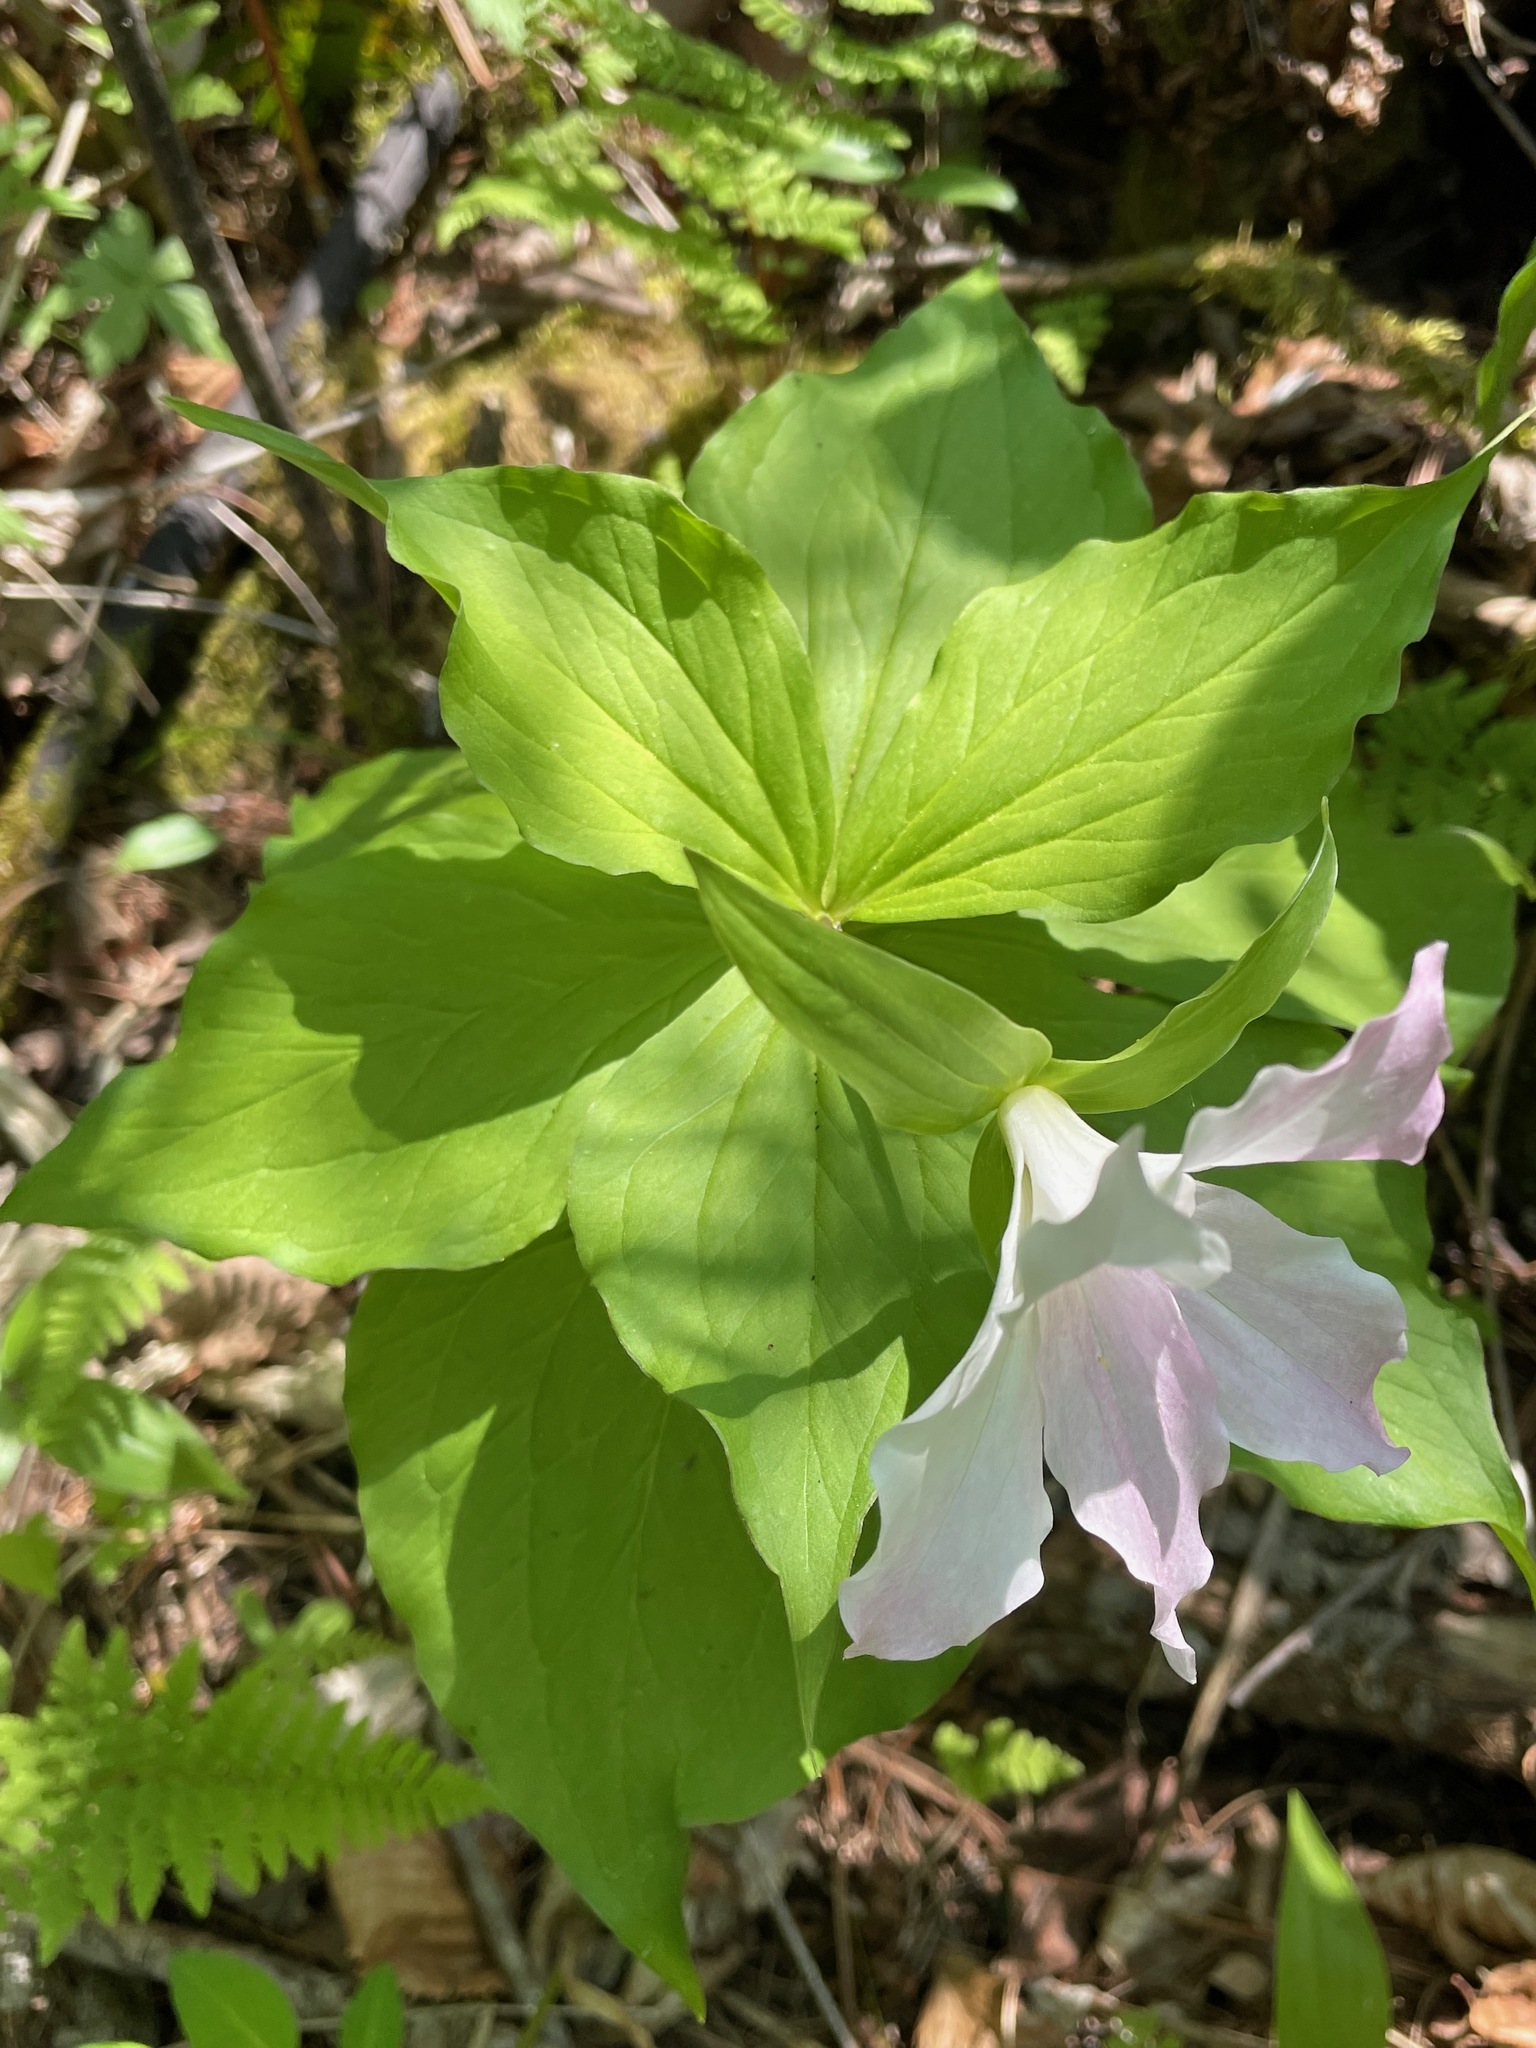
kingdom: Plantae
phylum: Tracheophyta
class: Liliopsida
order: Liliales
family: Melanthiaceae
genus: Trillium
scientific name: Trillium grandiflorum
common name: Great white trillium
